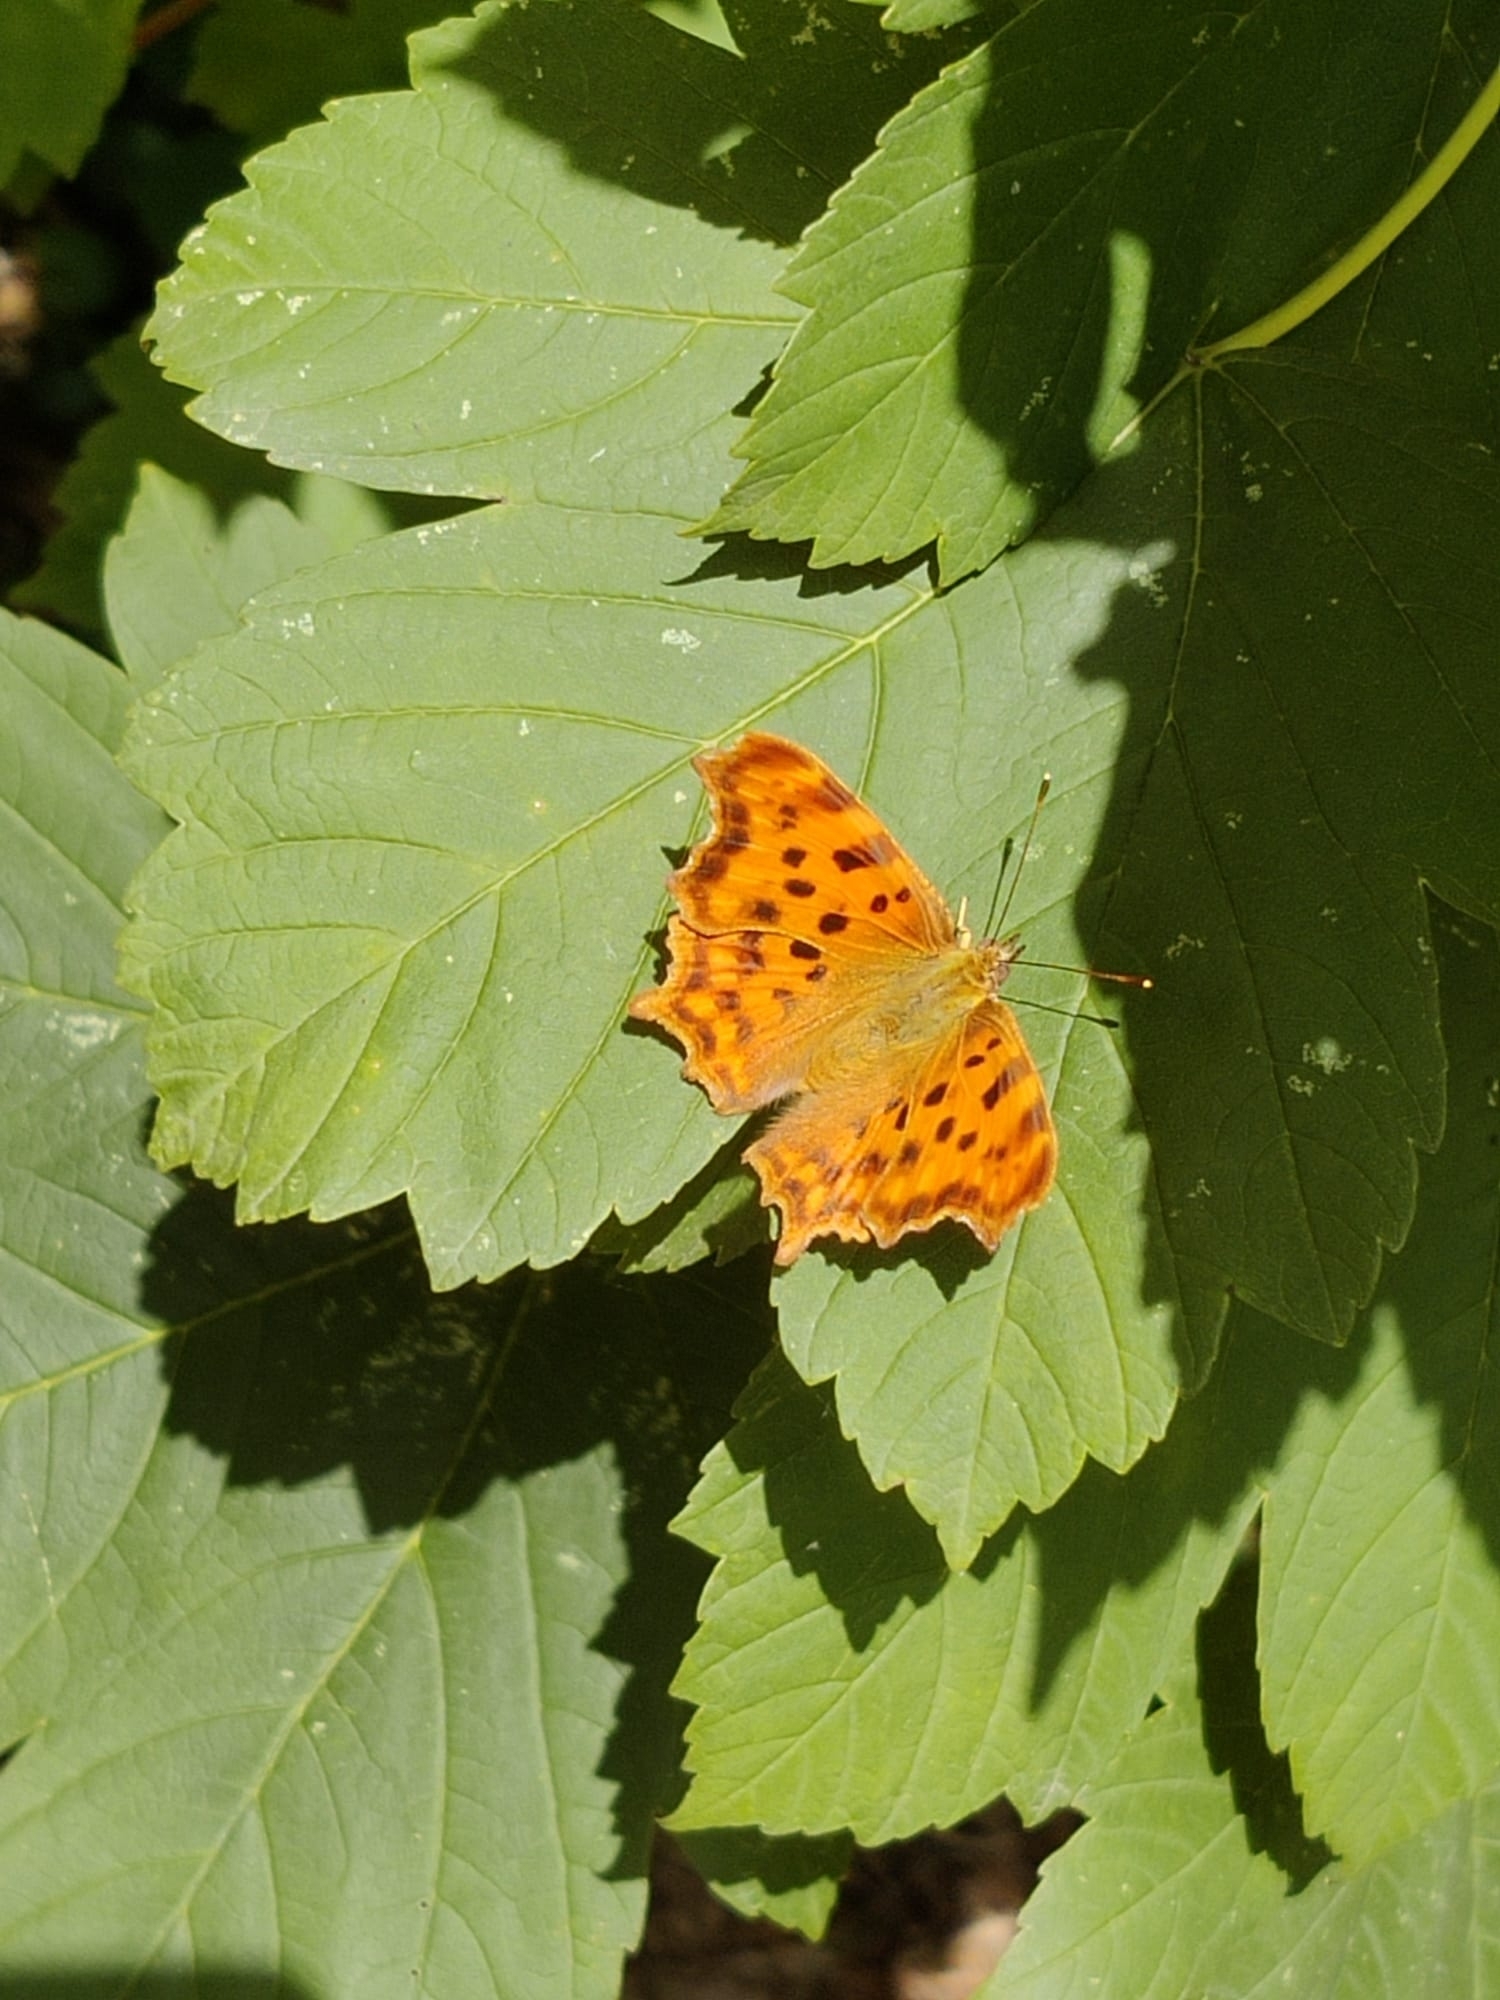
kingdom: Animalia
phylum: Arthropoda
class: Insecta
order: Lepidoptera
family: Nymphalidae
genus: Polygonia
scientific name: Polygonia c-album
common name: Comma
